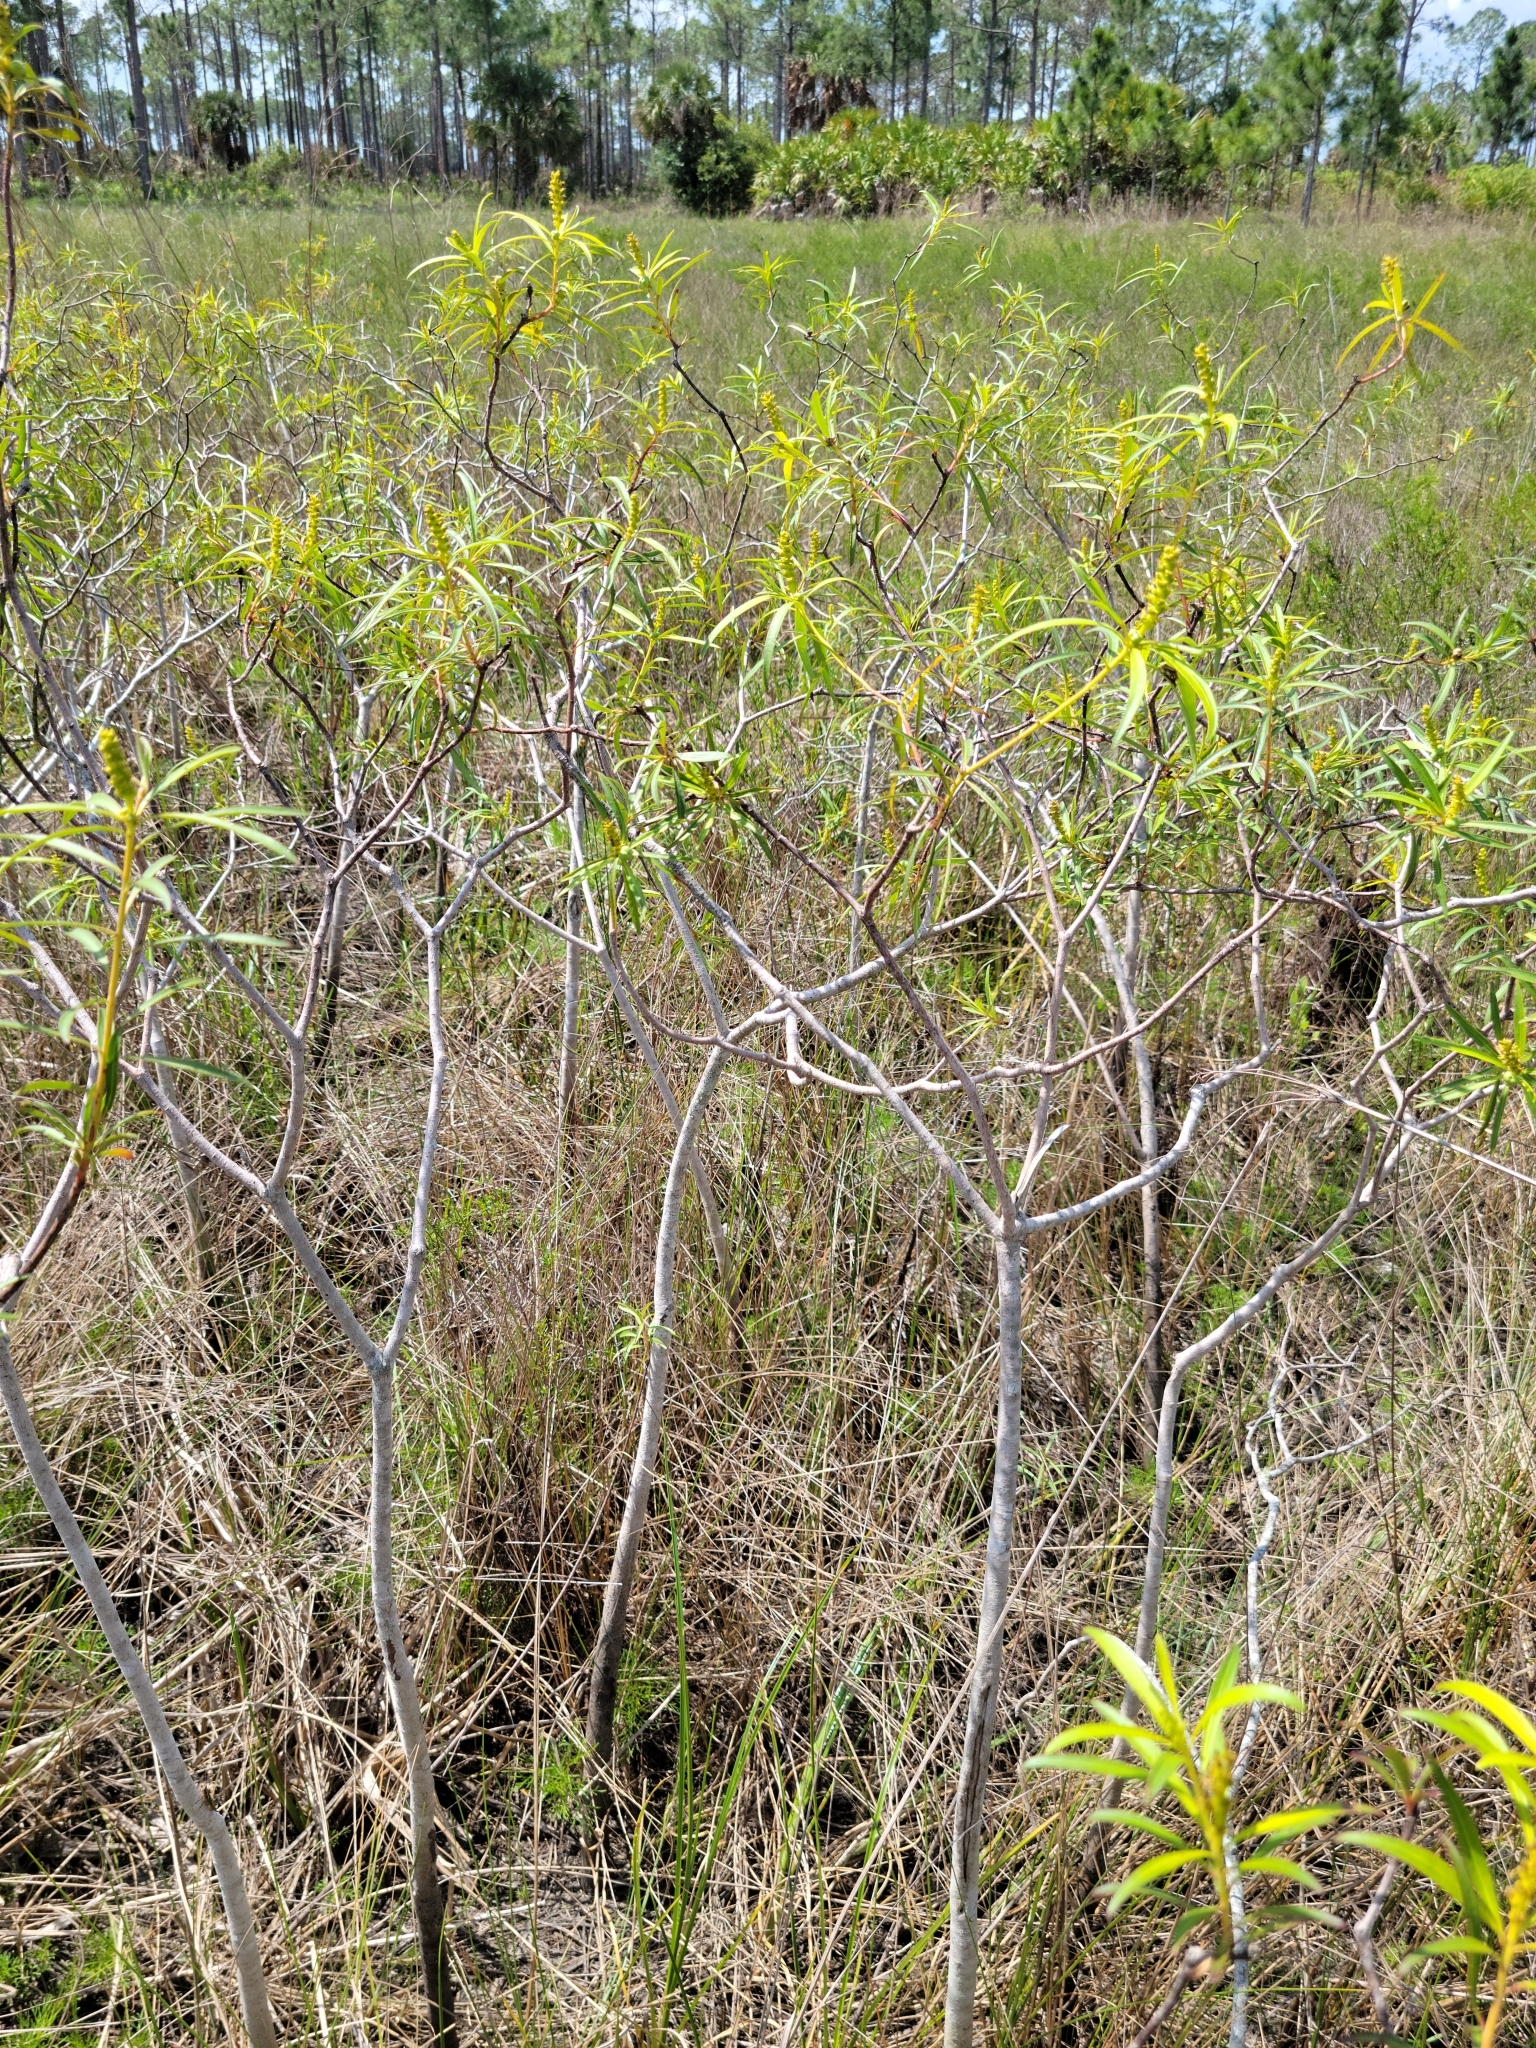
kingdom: Plantae
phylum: Tracheophyta
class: Magnoliopsida
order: Malpighiales
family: Euphorbiaceae
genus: Stillingia
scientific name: Stillingia aquatica
